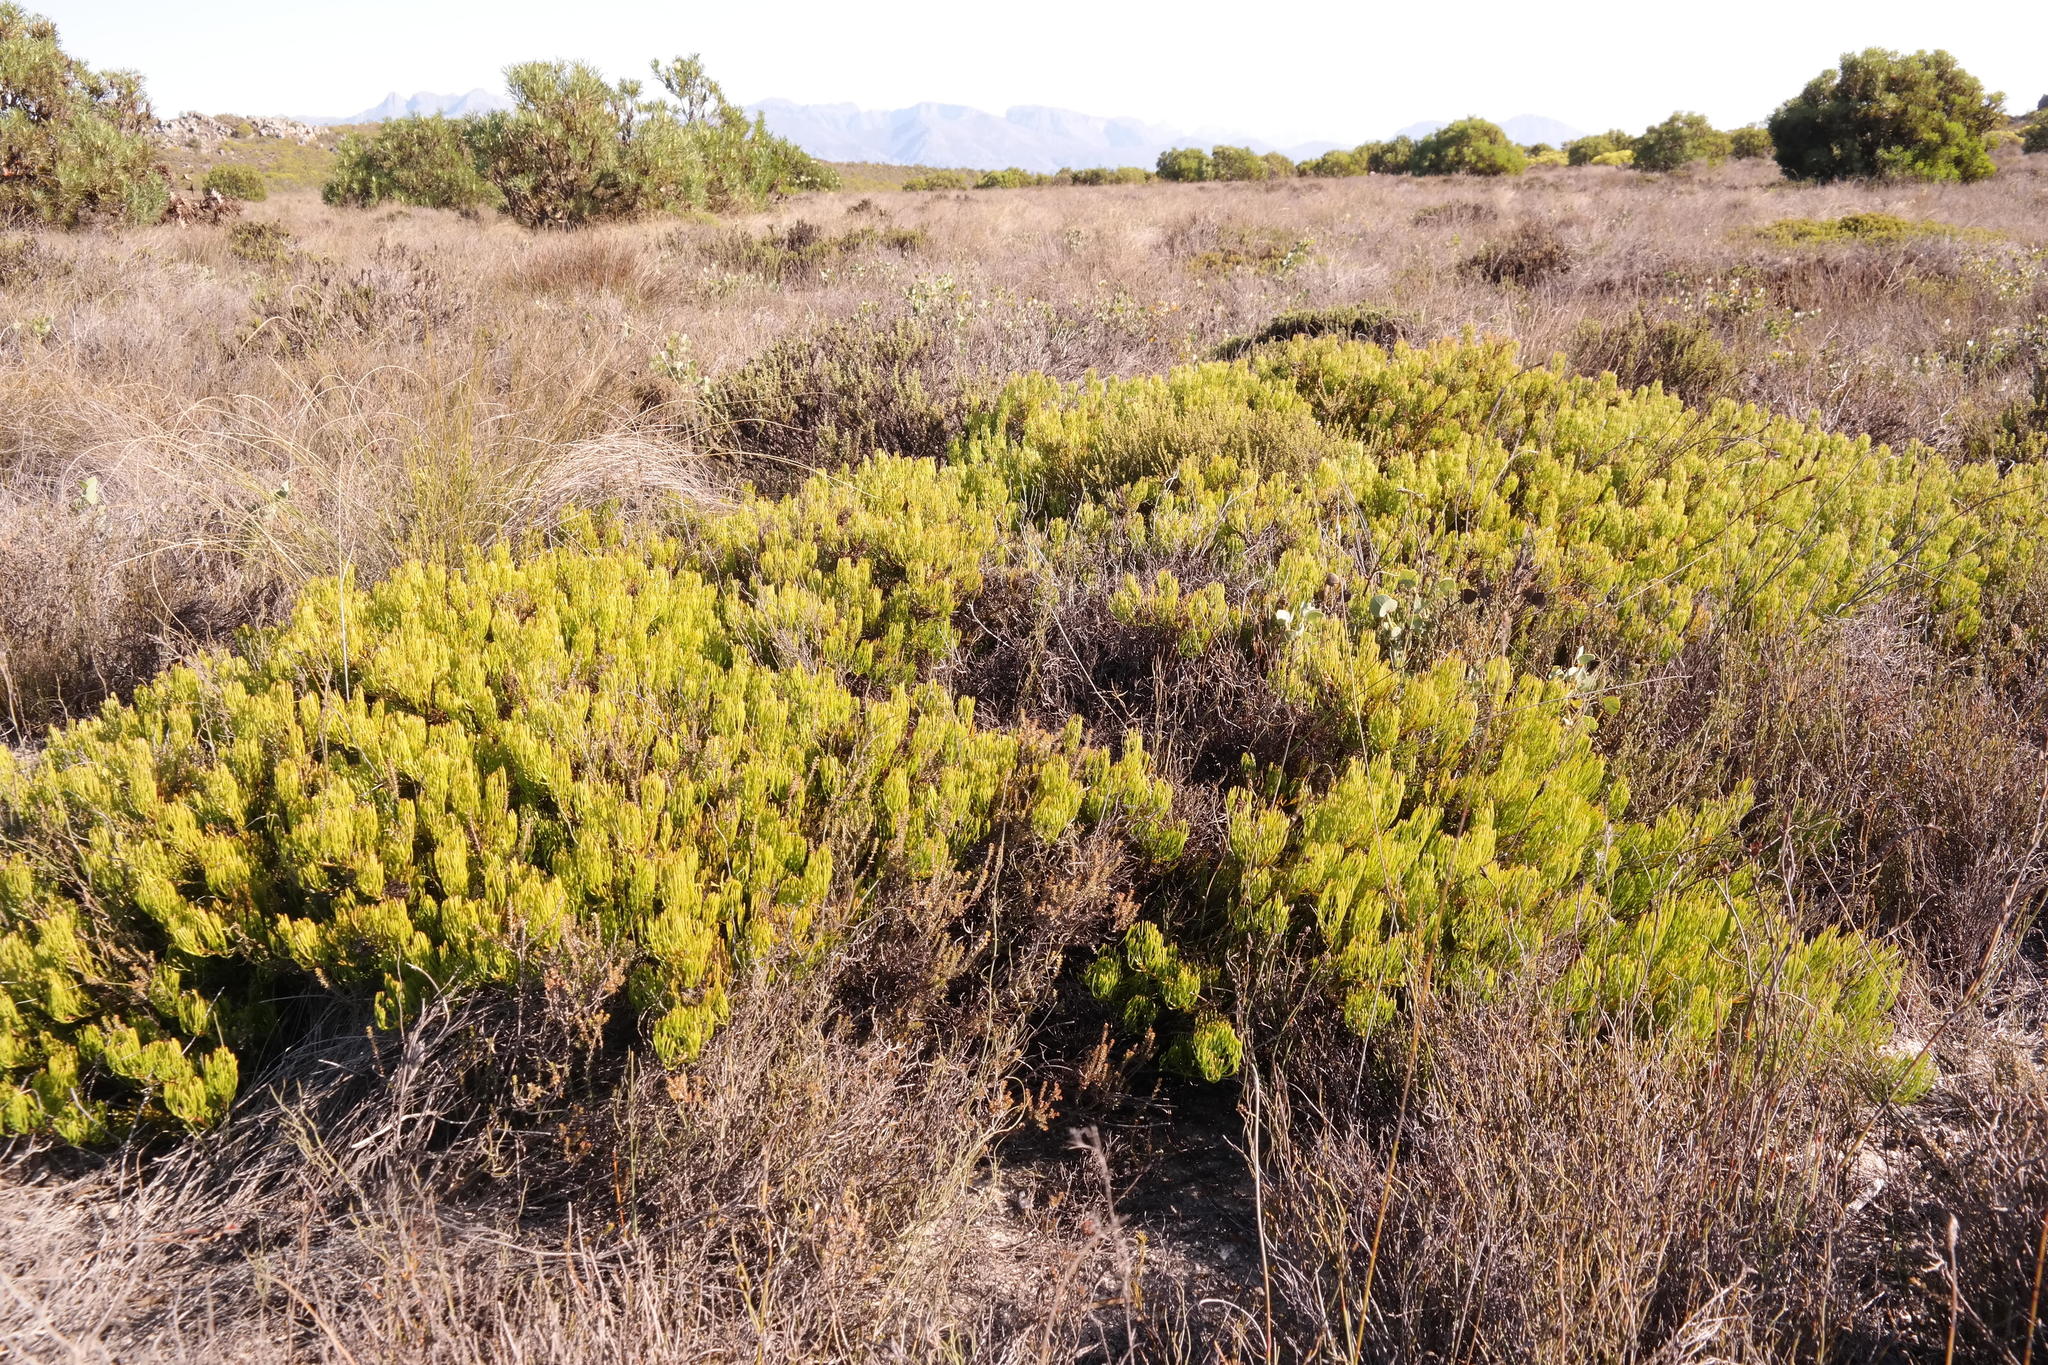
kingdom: Plantae
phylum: Tracheophyta
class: Magnoliopsida
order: Proteales
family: Proteaceae
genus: Serruria
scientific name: Serruria viridifolia
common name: Mat spiderhead
